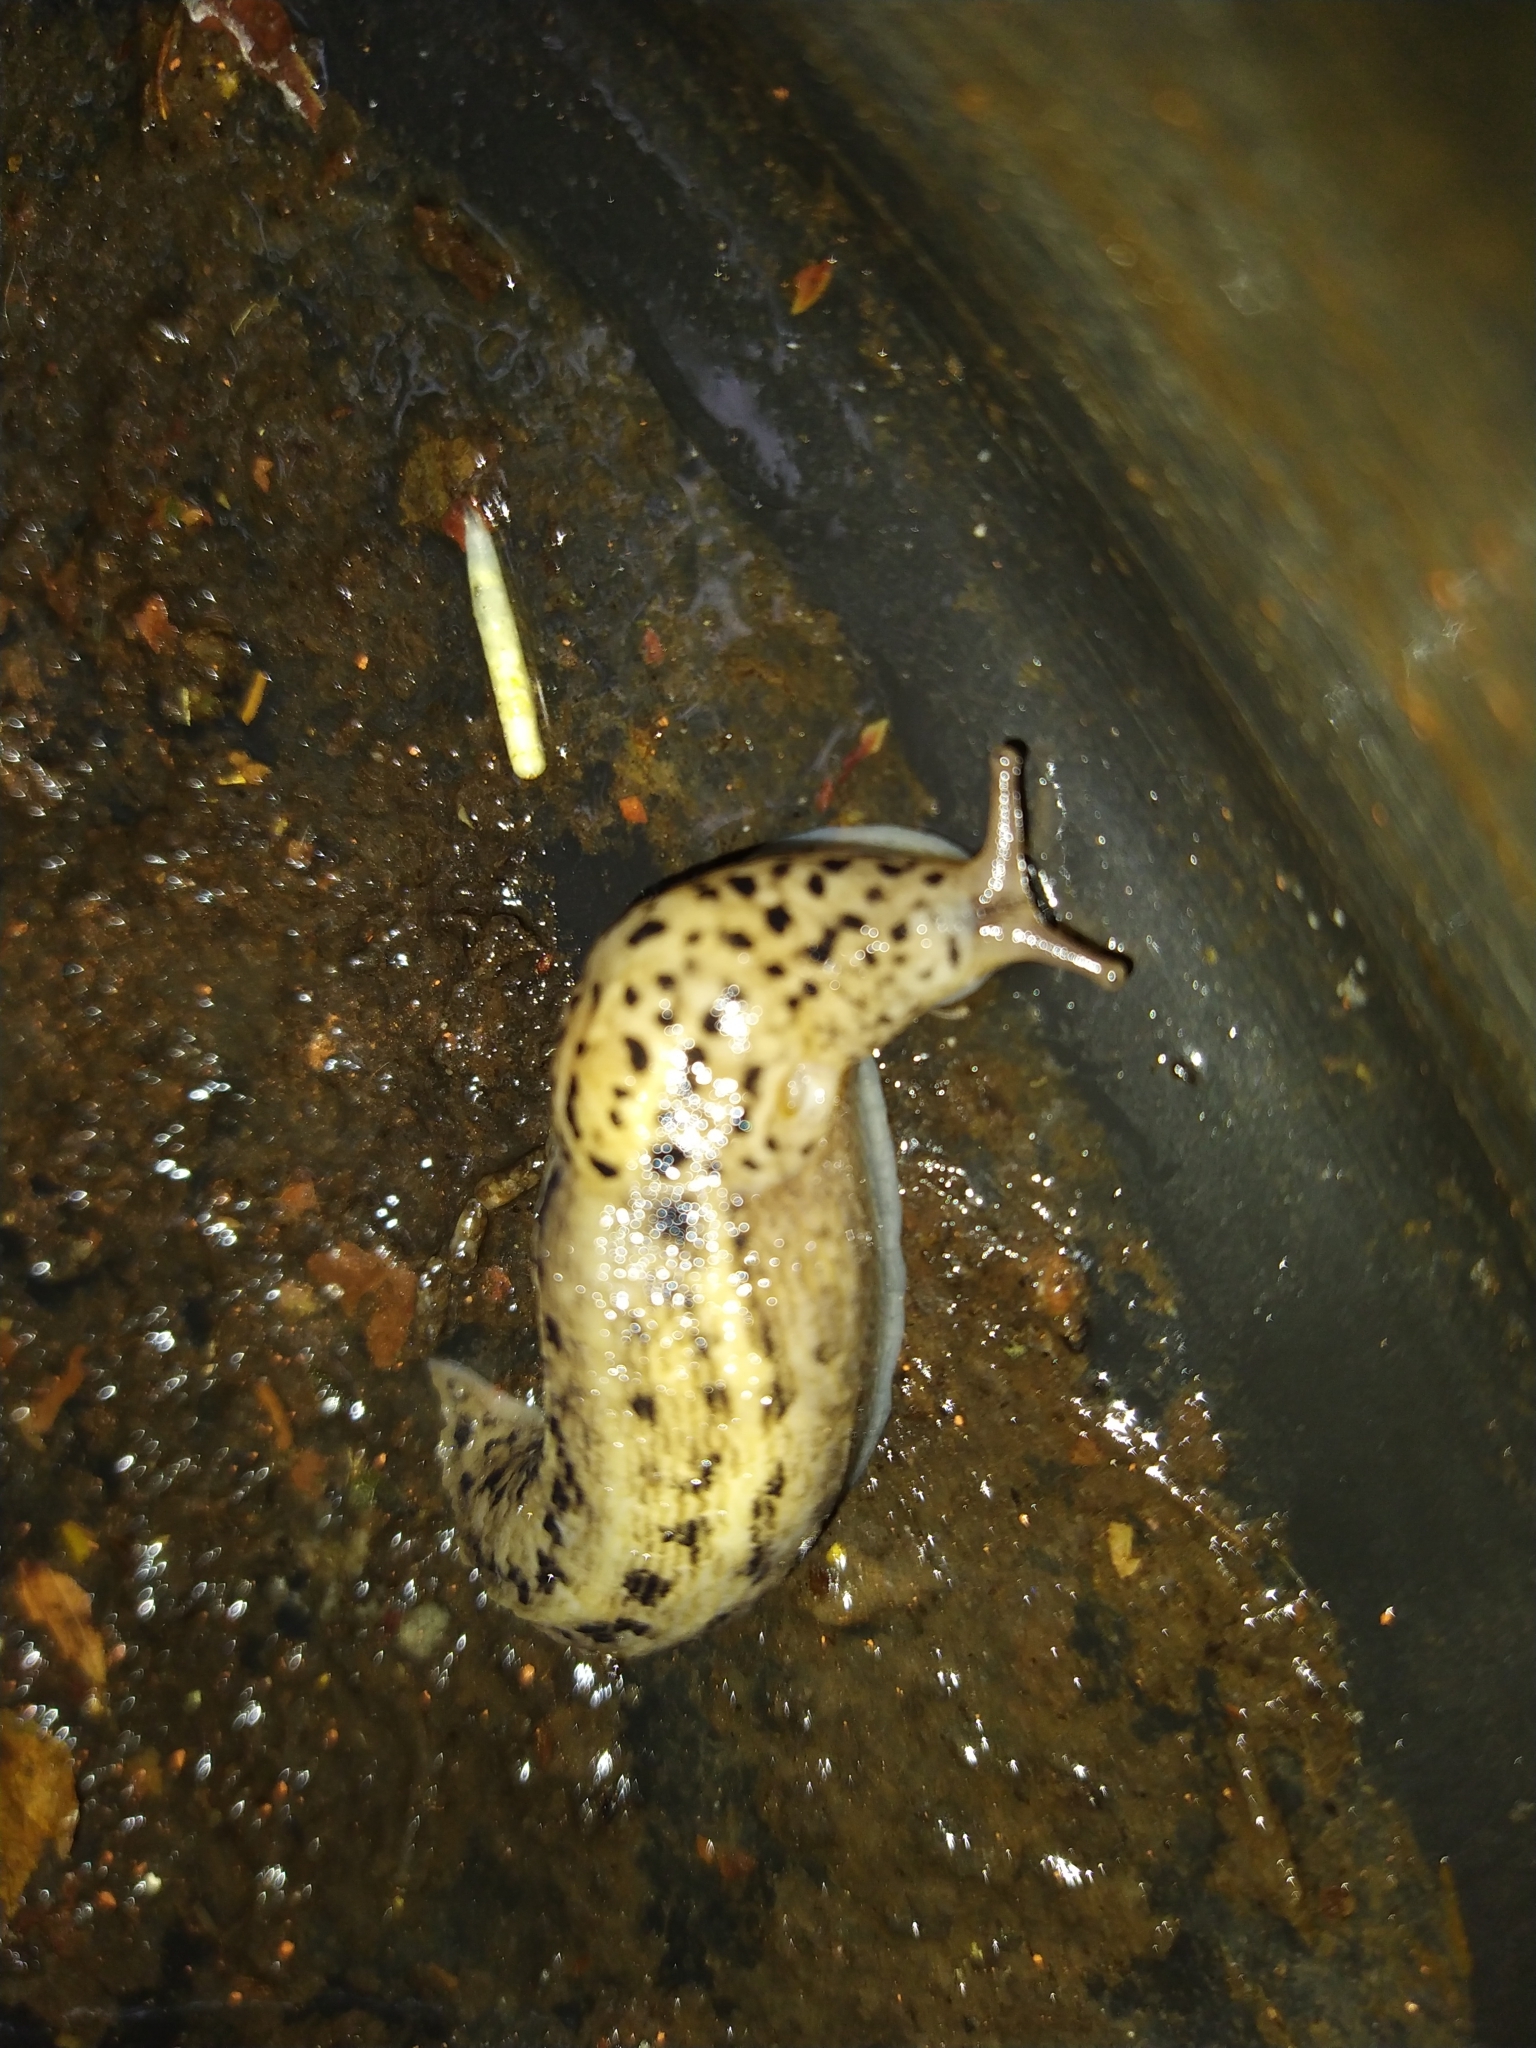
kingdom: Animalia
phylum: Mollusca
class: Gastropoda
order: Stylommatophora
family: Limacidae
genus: Limax
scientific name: Limax maximus
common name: Great grey slug
